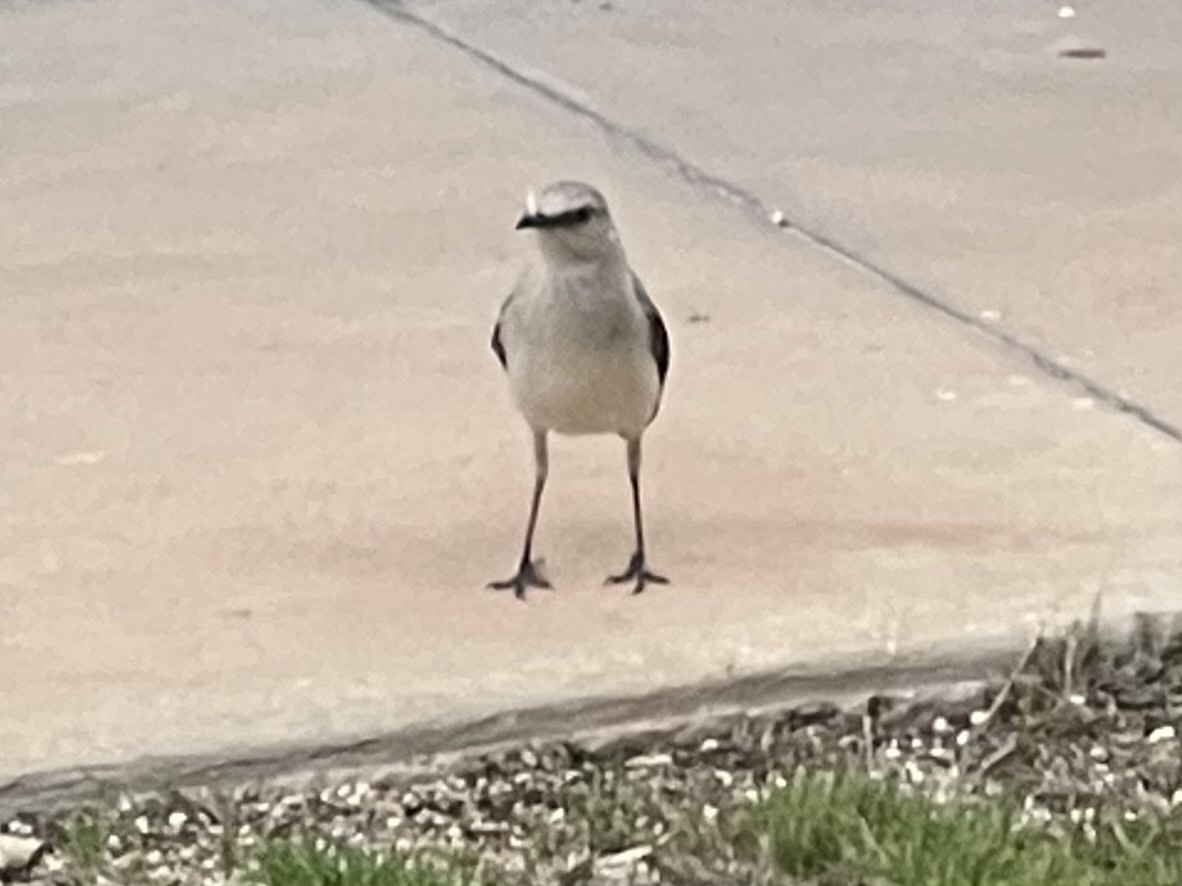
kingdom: Animalia
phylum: Chordata
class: Aves
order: Passeriformes
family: Mimidae
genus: Mimus
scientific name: Mimus gilvus
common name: Tropical mockingbird
